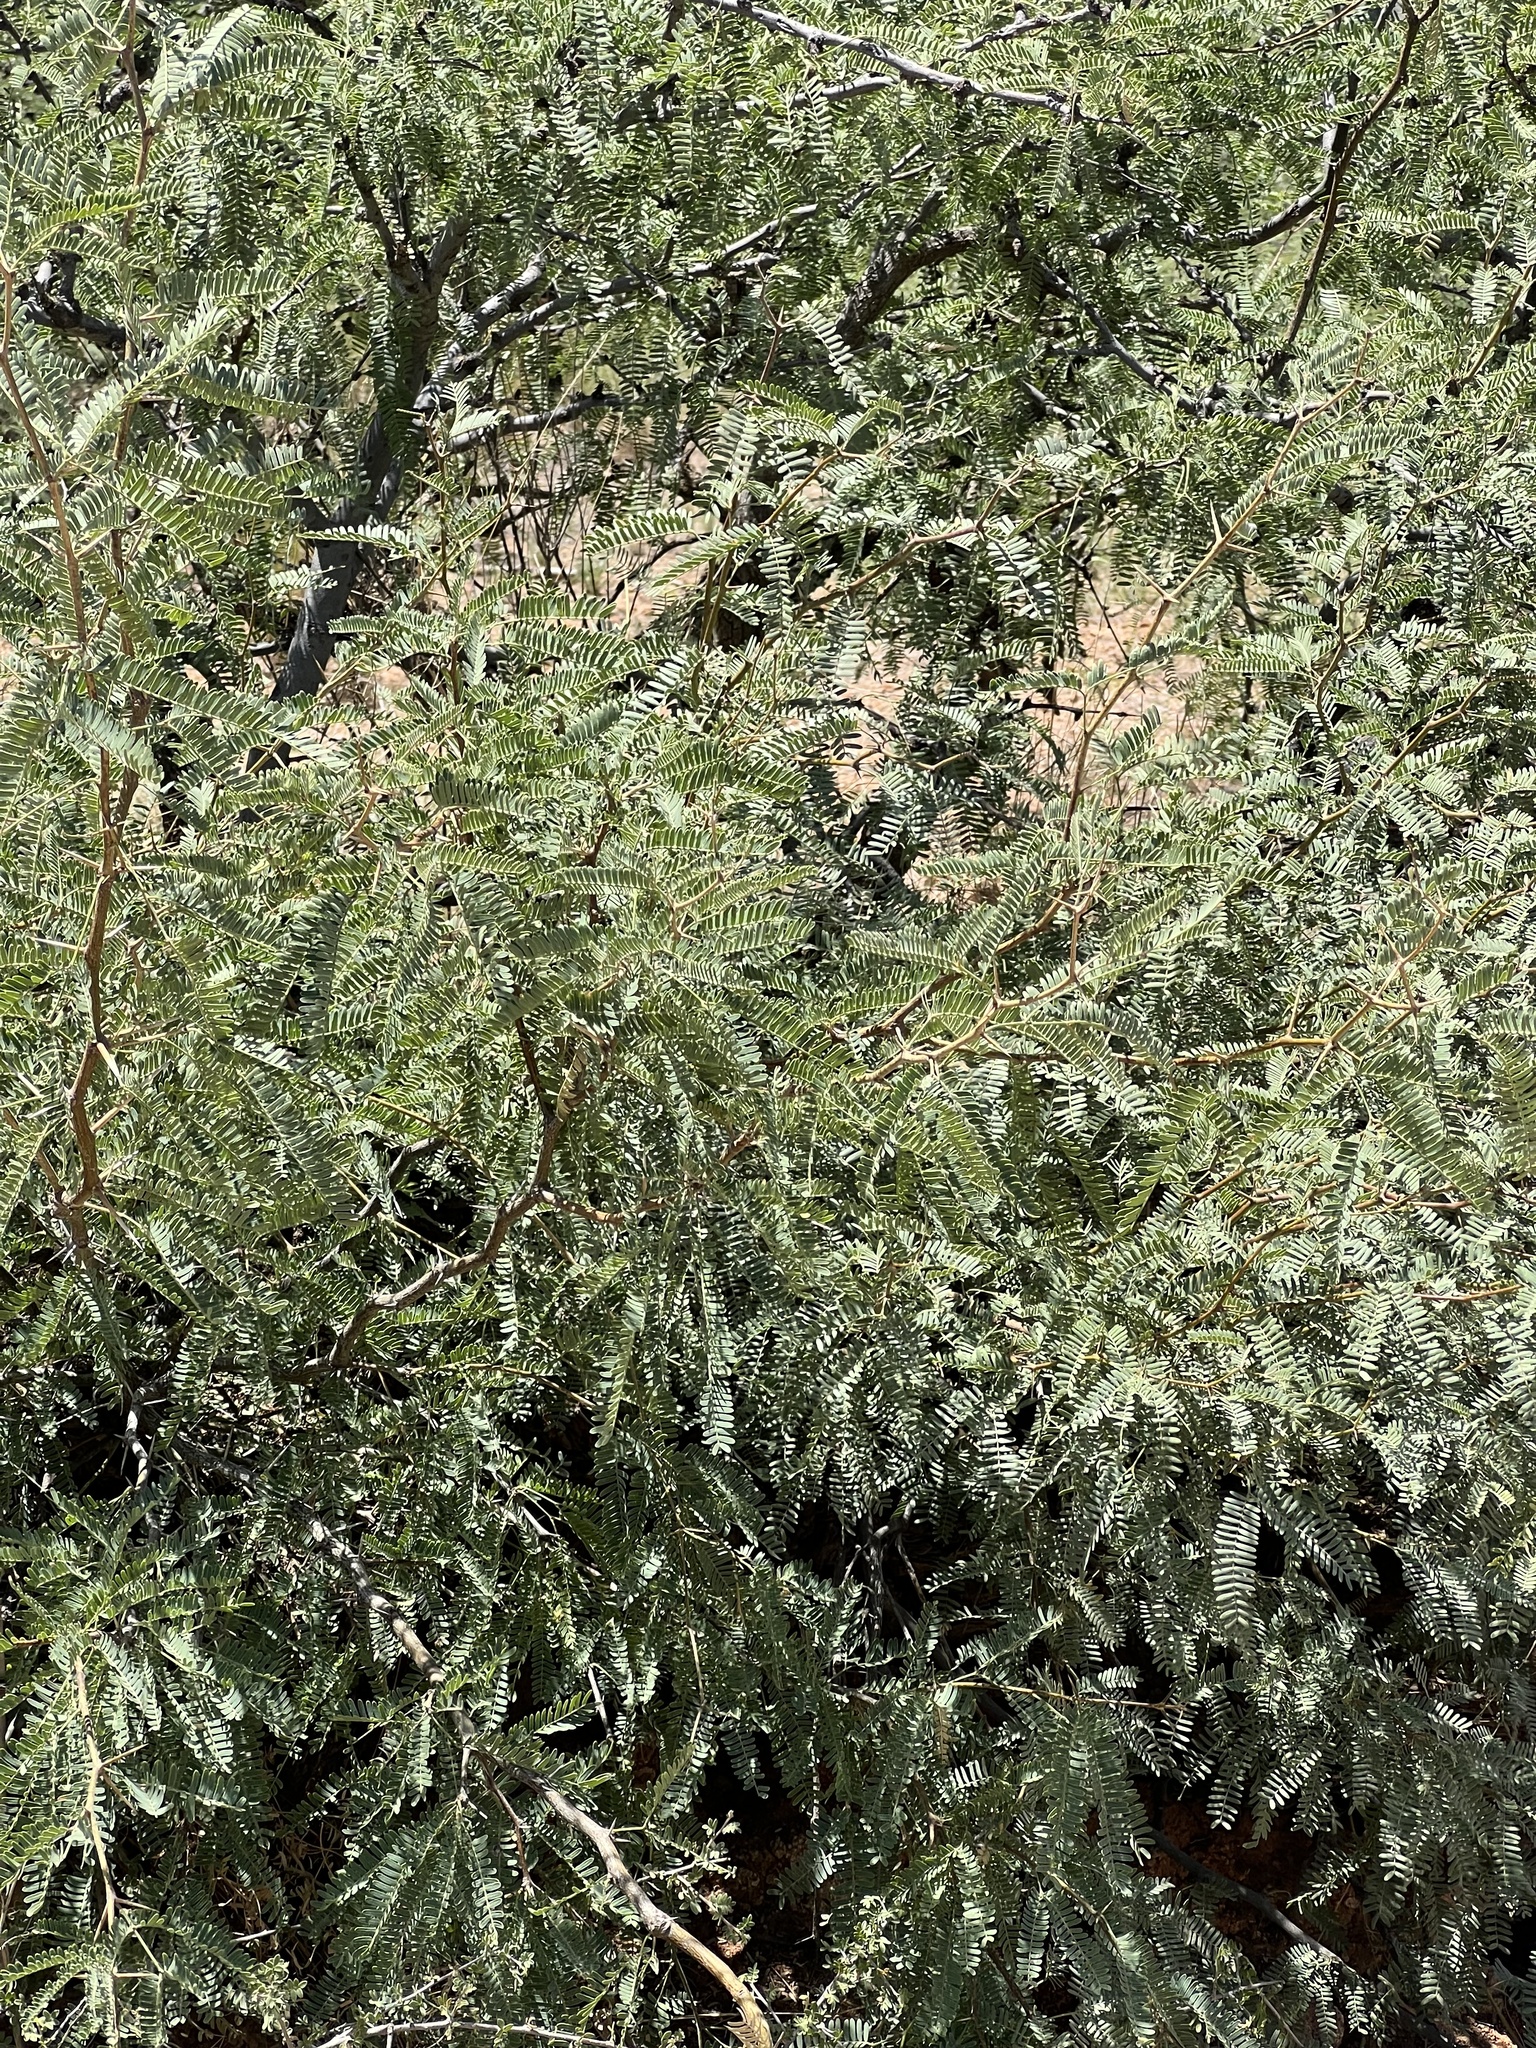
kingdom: Plantae
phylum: Tracheophyta
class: Magnoliopsida
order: Fabales
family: Fabaceae
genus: Prosopis
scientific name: Prosopis velutina
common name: Velvet mesquite
